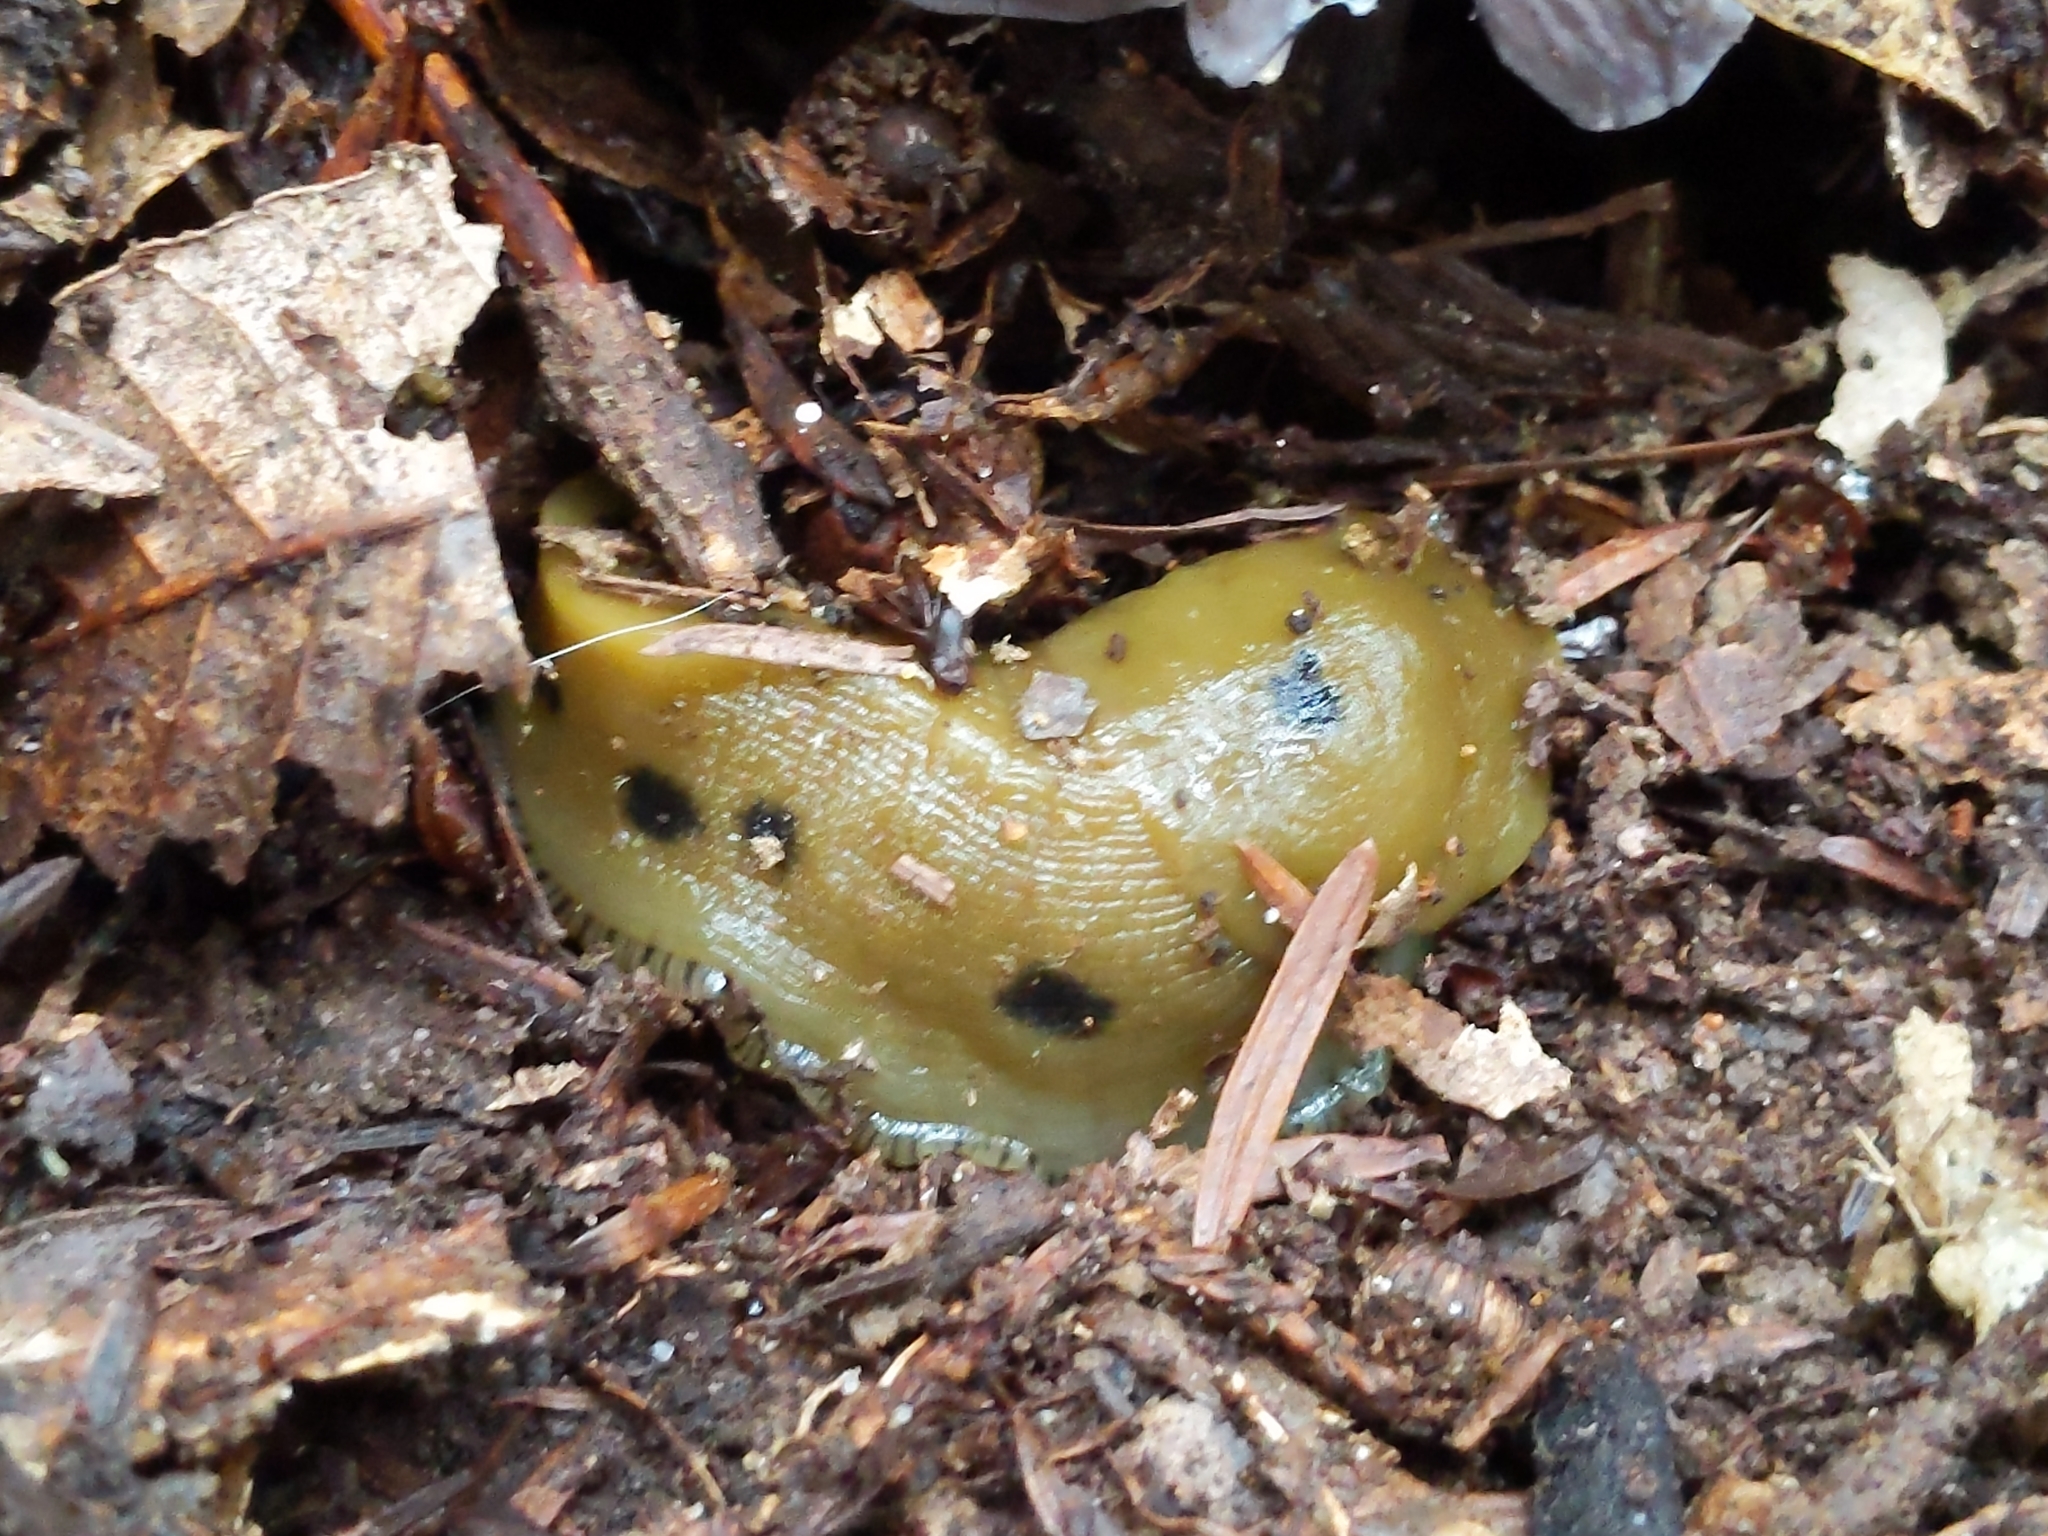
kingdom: Animalia
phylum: Mollusca
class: Gastropoda
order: Stylommatophora
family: Ariolimacidae
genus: Ariolimax
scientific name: Ariolimax buttoni
